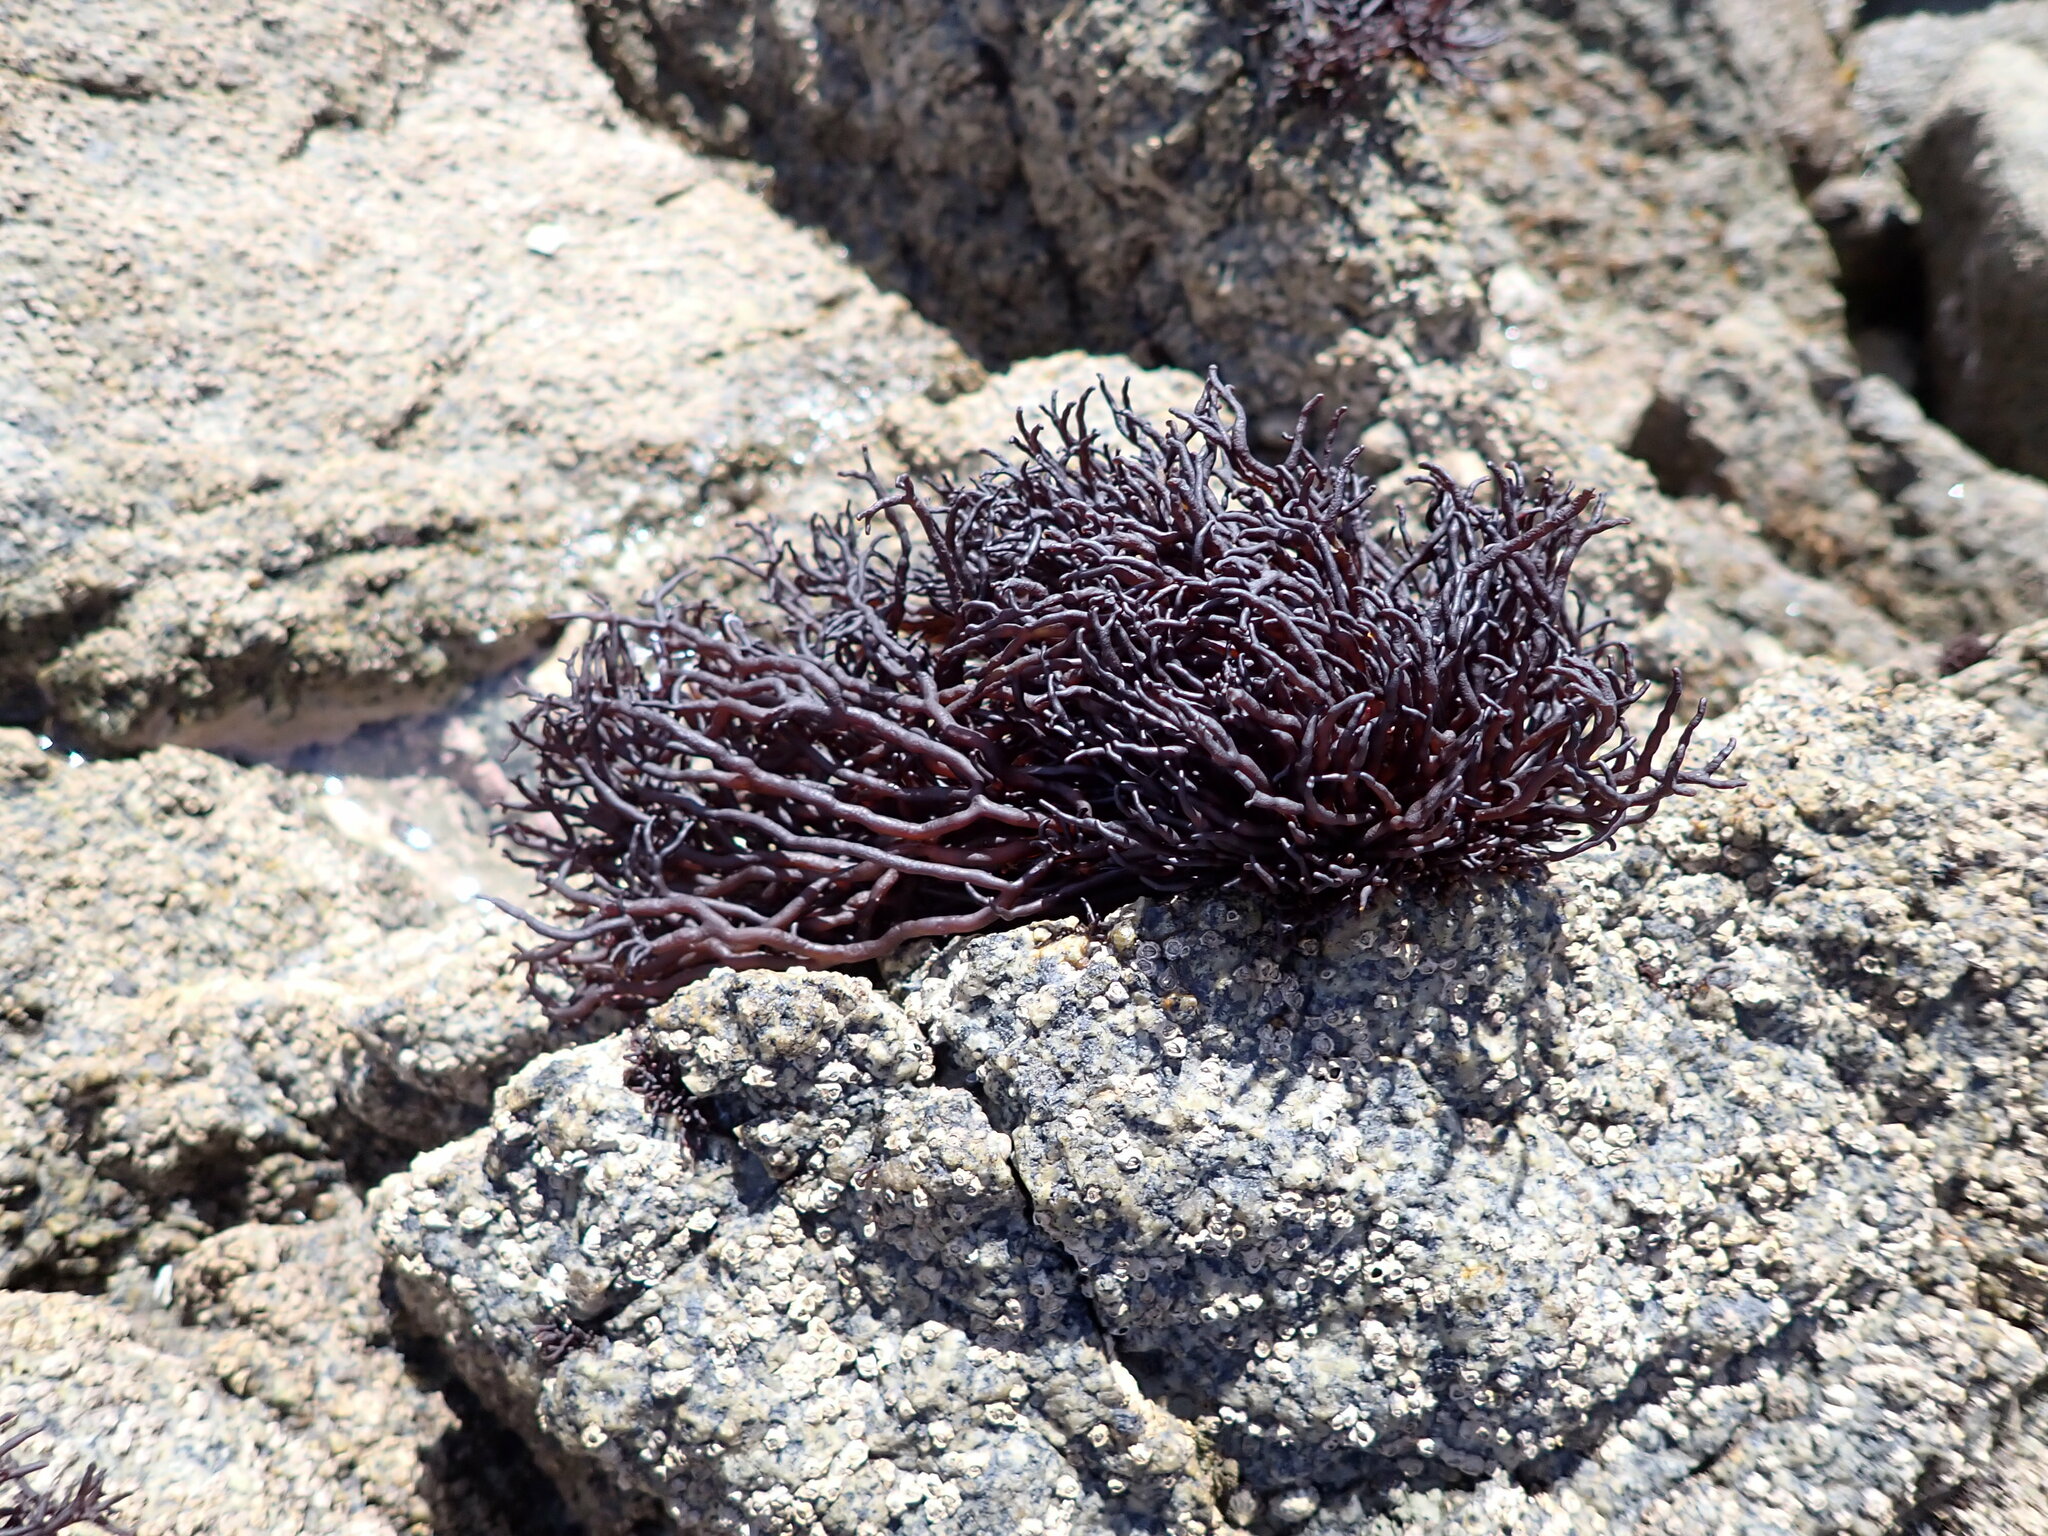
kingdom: Plantae
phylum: Rhodophyta
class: Florideophyceae
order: Hildenbrandiales
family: Hildenbrandiaceae
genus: Apophlaea
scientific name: Apophlaea lyallii
